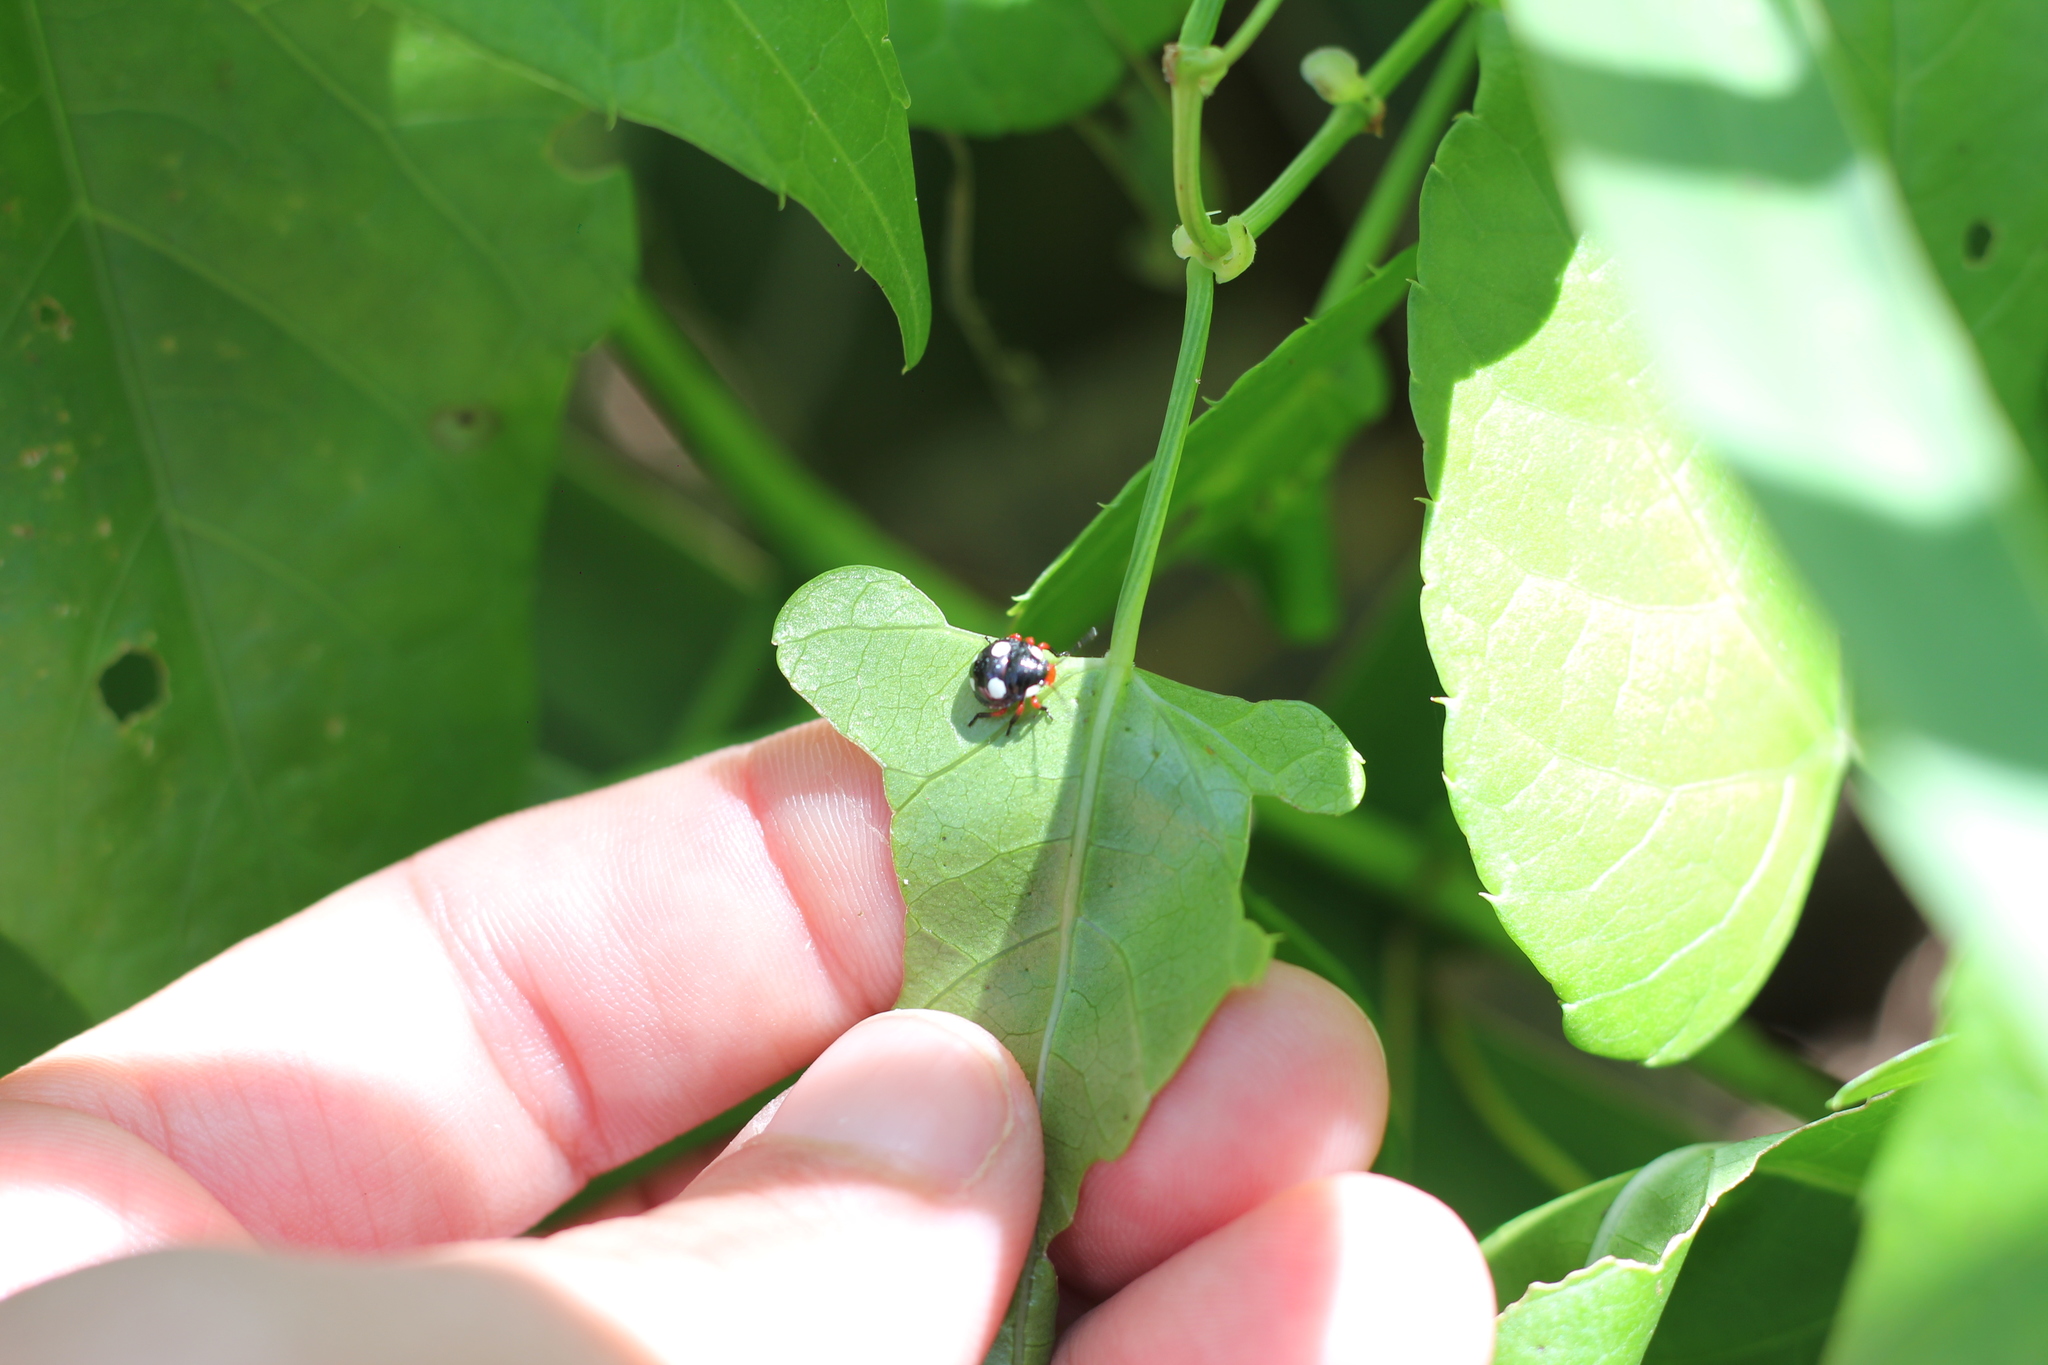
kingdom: Animalia
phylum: Arthropoda
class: Insecta
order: Hemiptera
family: Pentatomidae
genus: Chinavia
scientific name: Chinavia erythrocnemis
